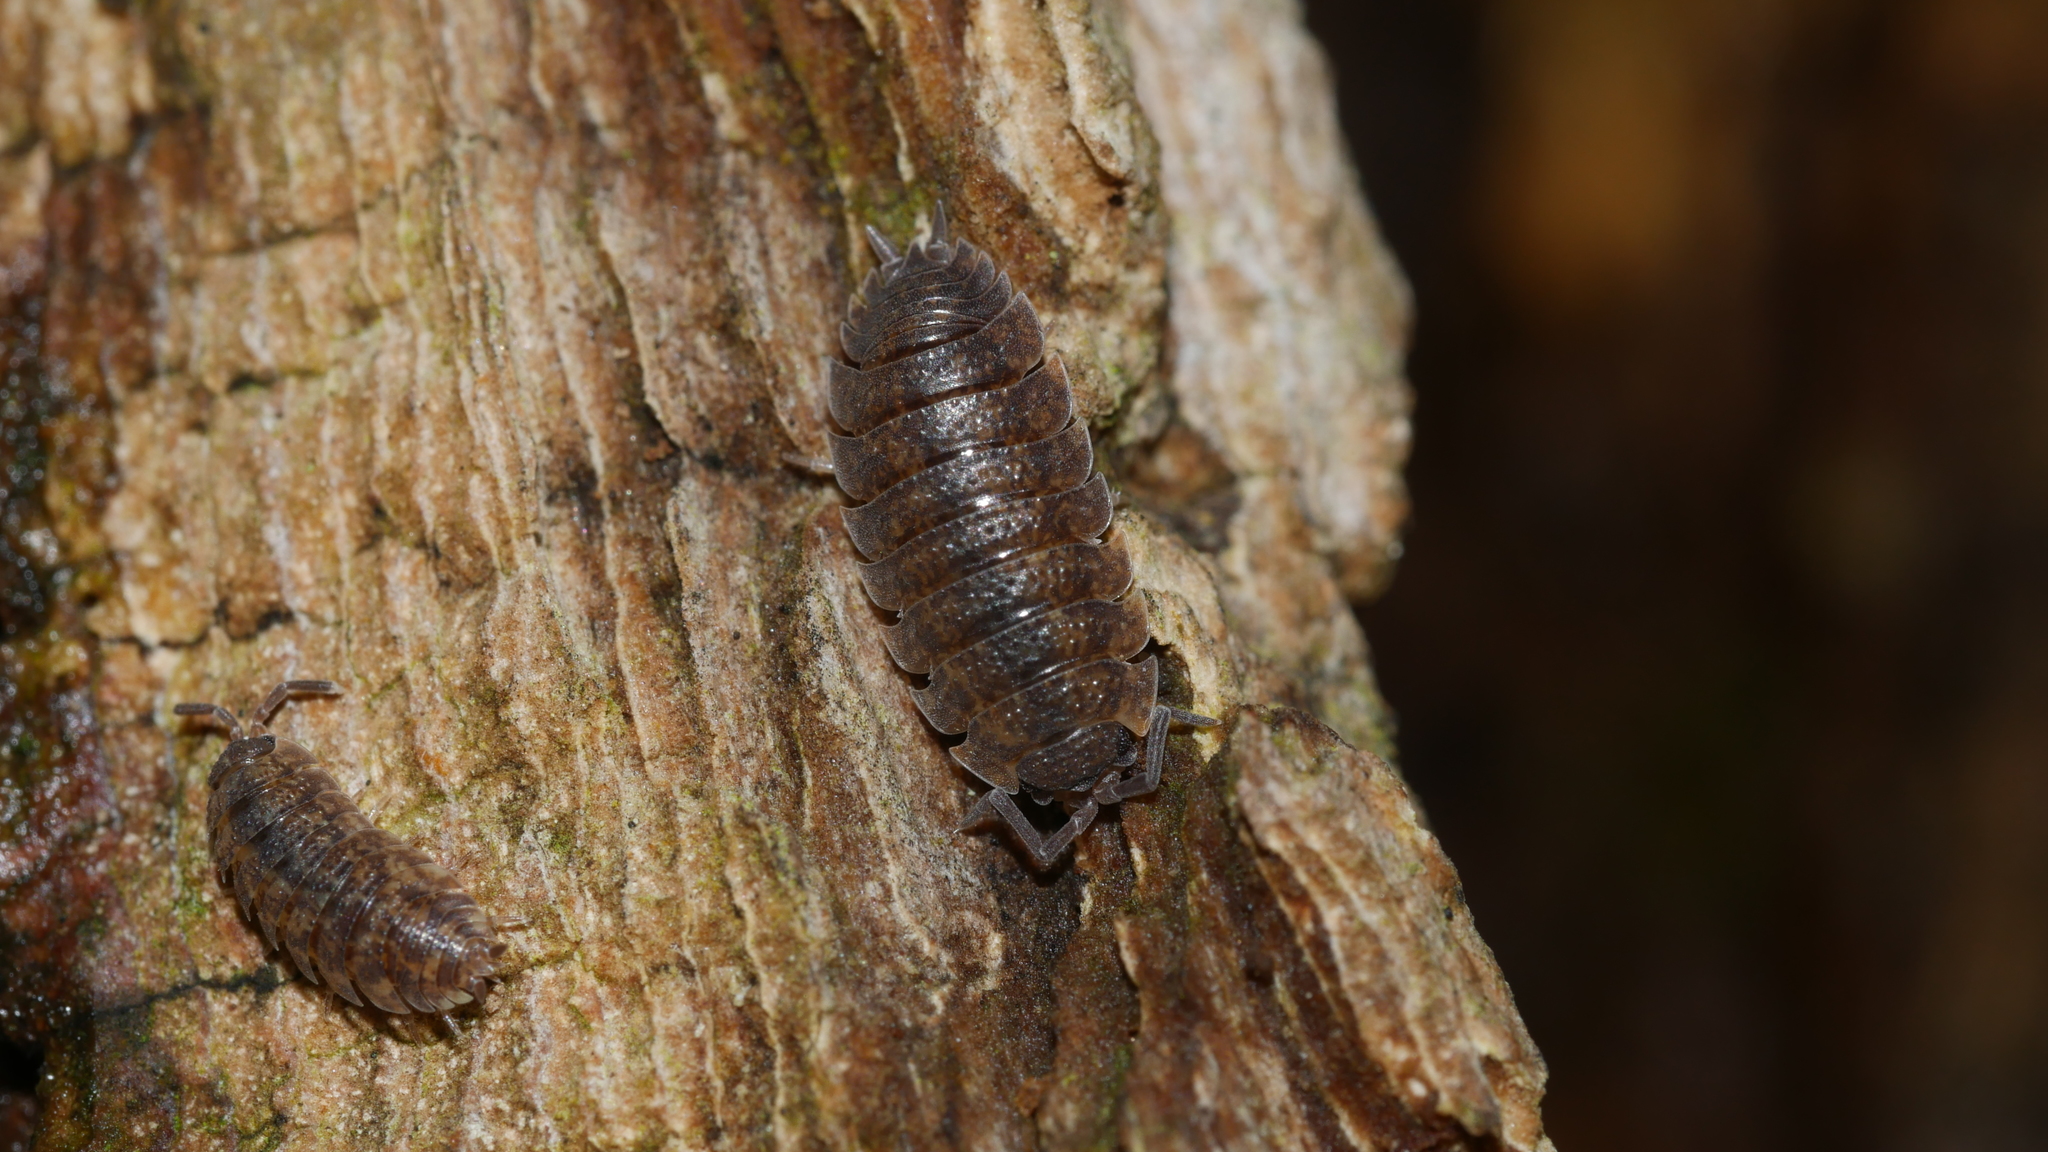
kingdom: Animalia
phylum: Arthropoda
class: Malacostraca
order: Isopoda
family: Porcellionidae
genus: Porcellio
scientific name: Porcellio scaber
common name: Common rough woodlouse
